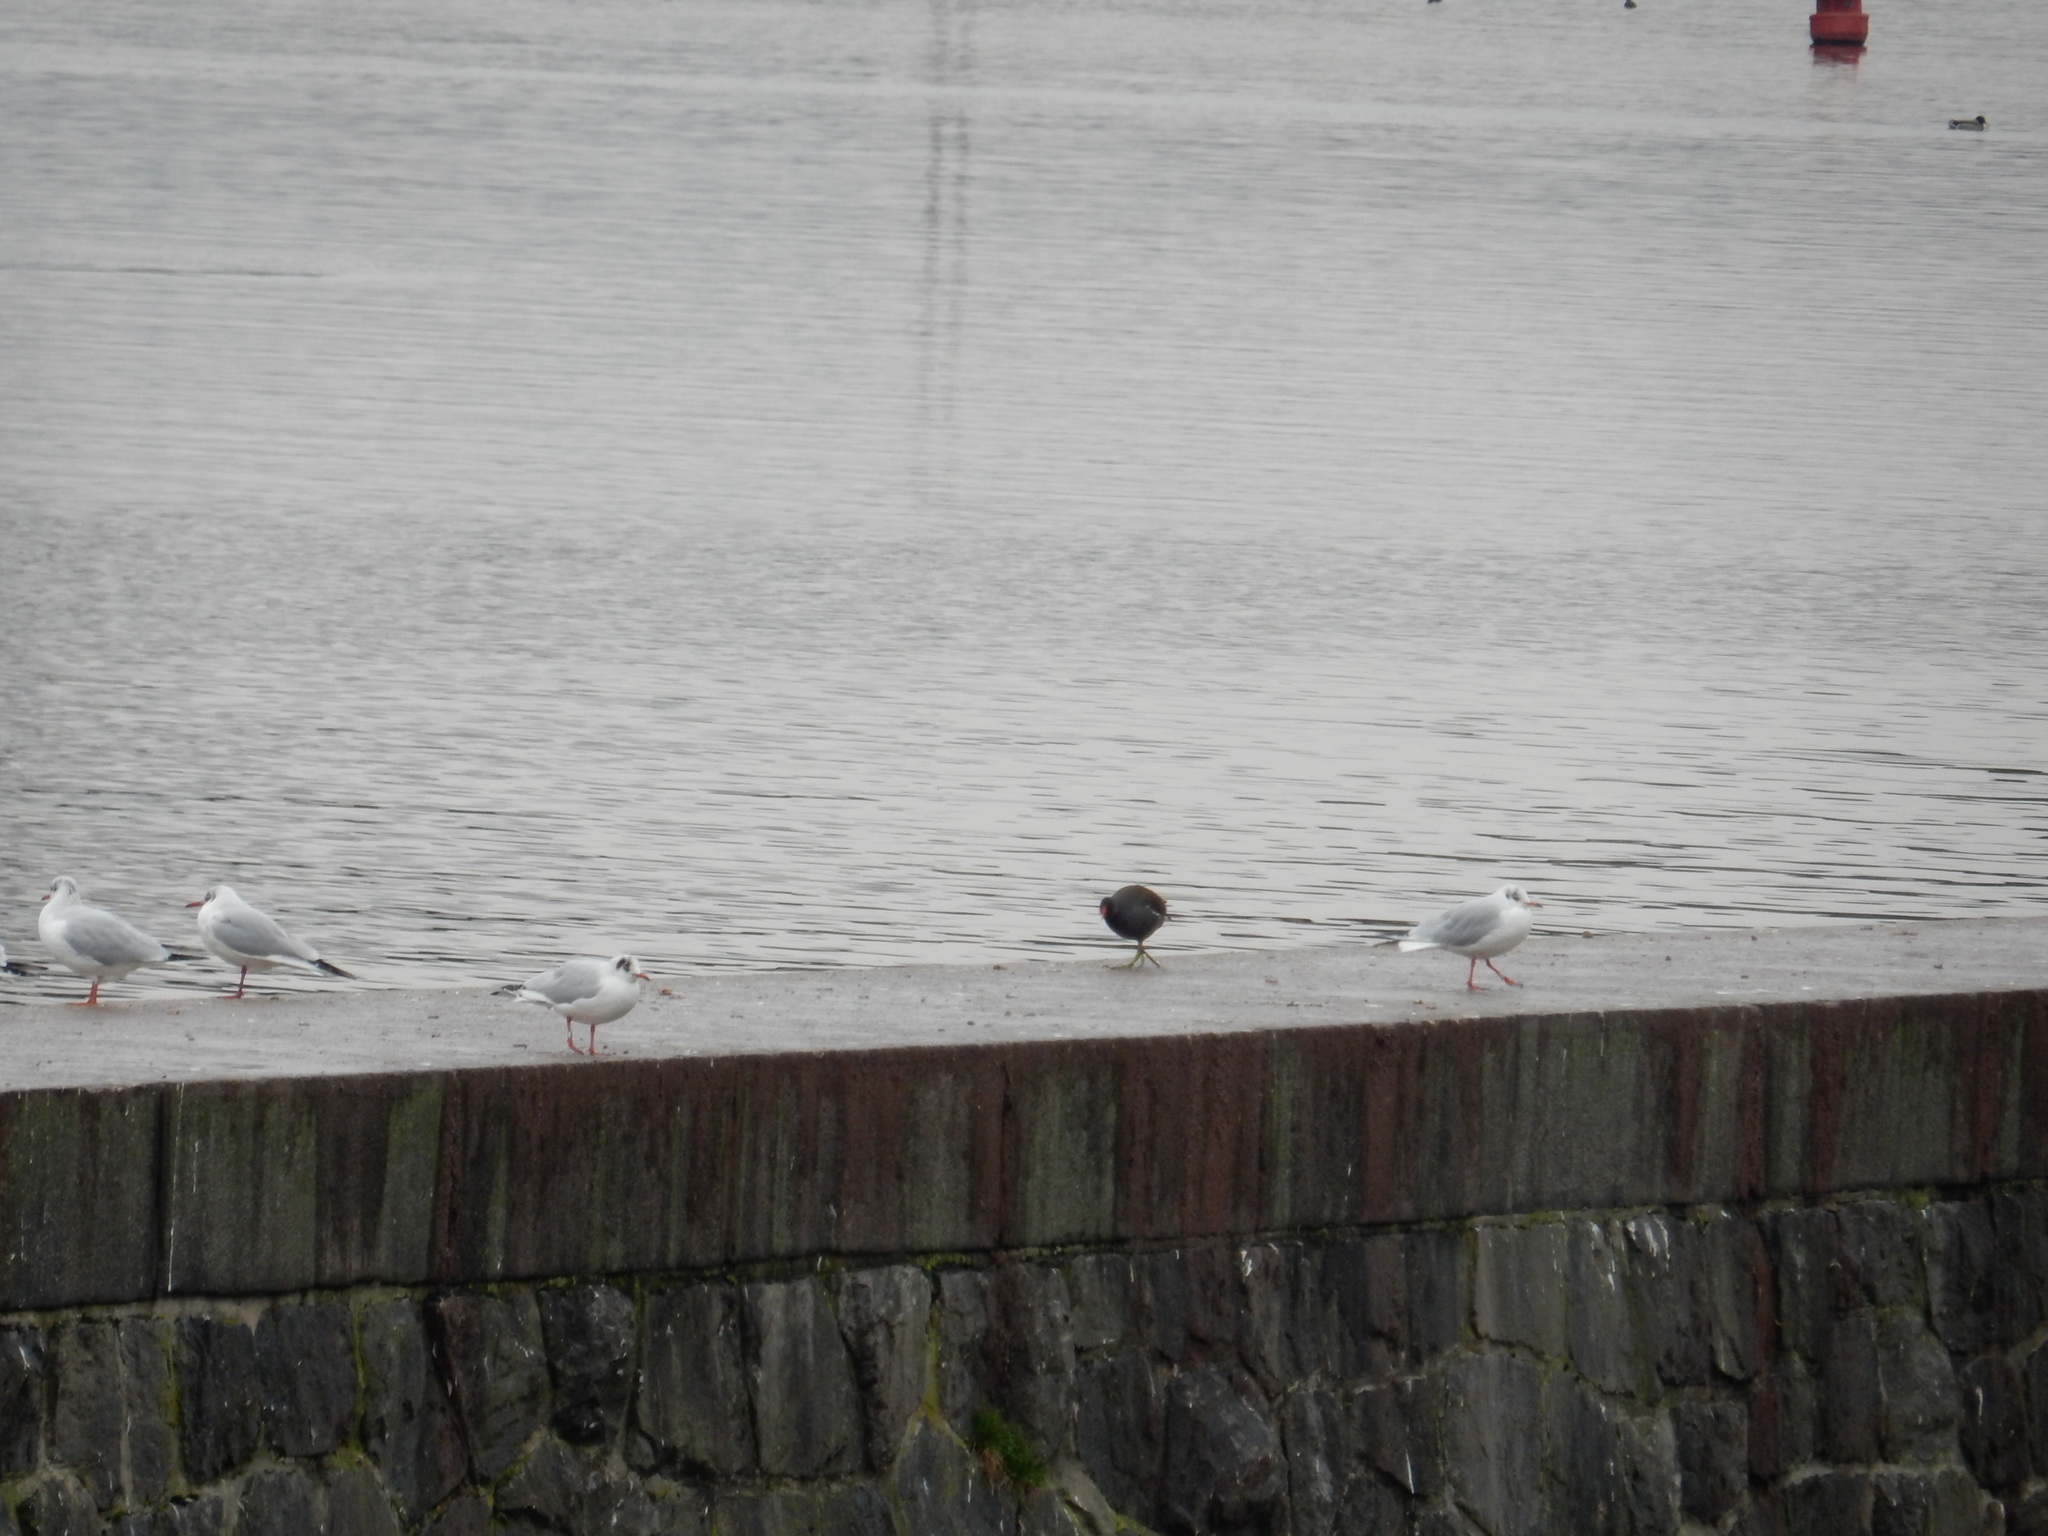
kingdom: Animalia
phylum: Chordata
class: Aves
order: Charadriiformes
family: Laridae
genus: Chroicocephalus
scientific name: Chroicocephalus ridibundus
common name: Black-headed gull
